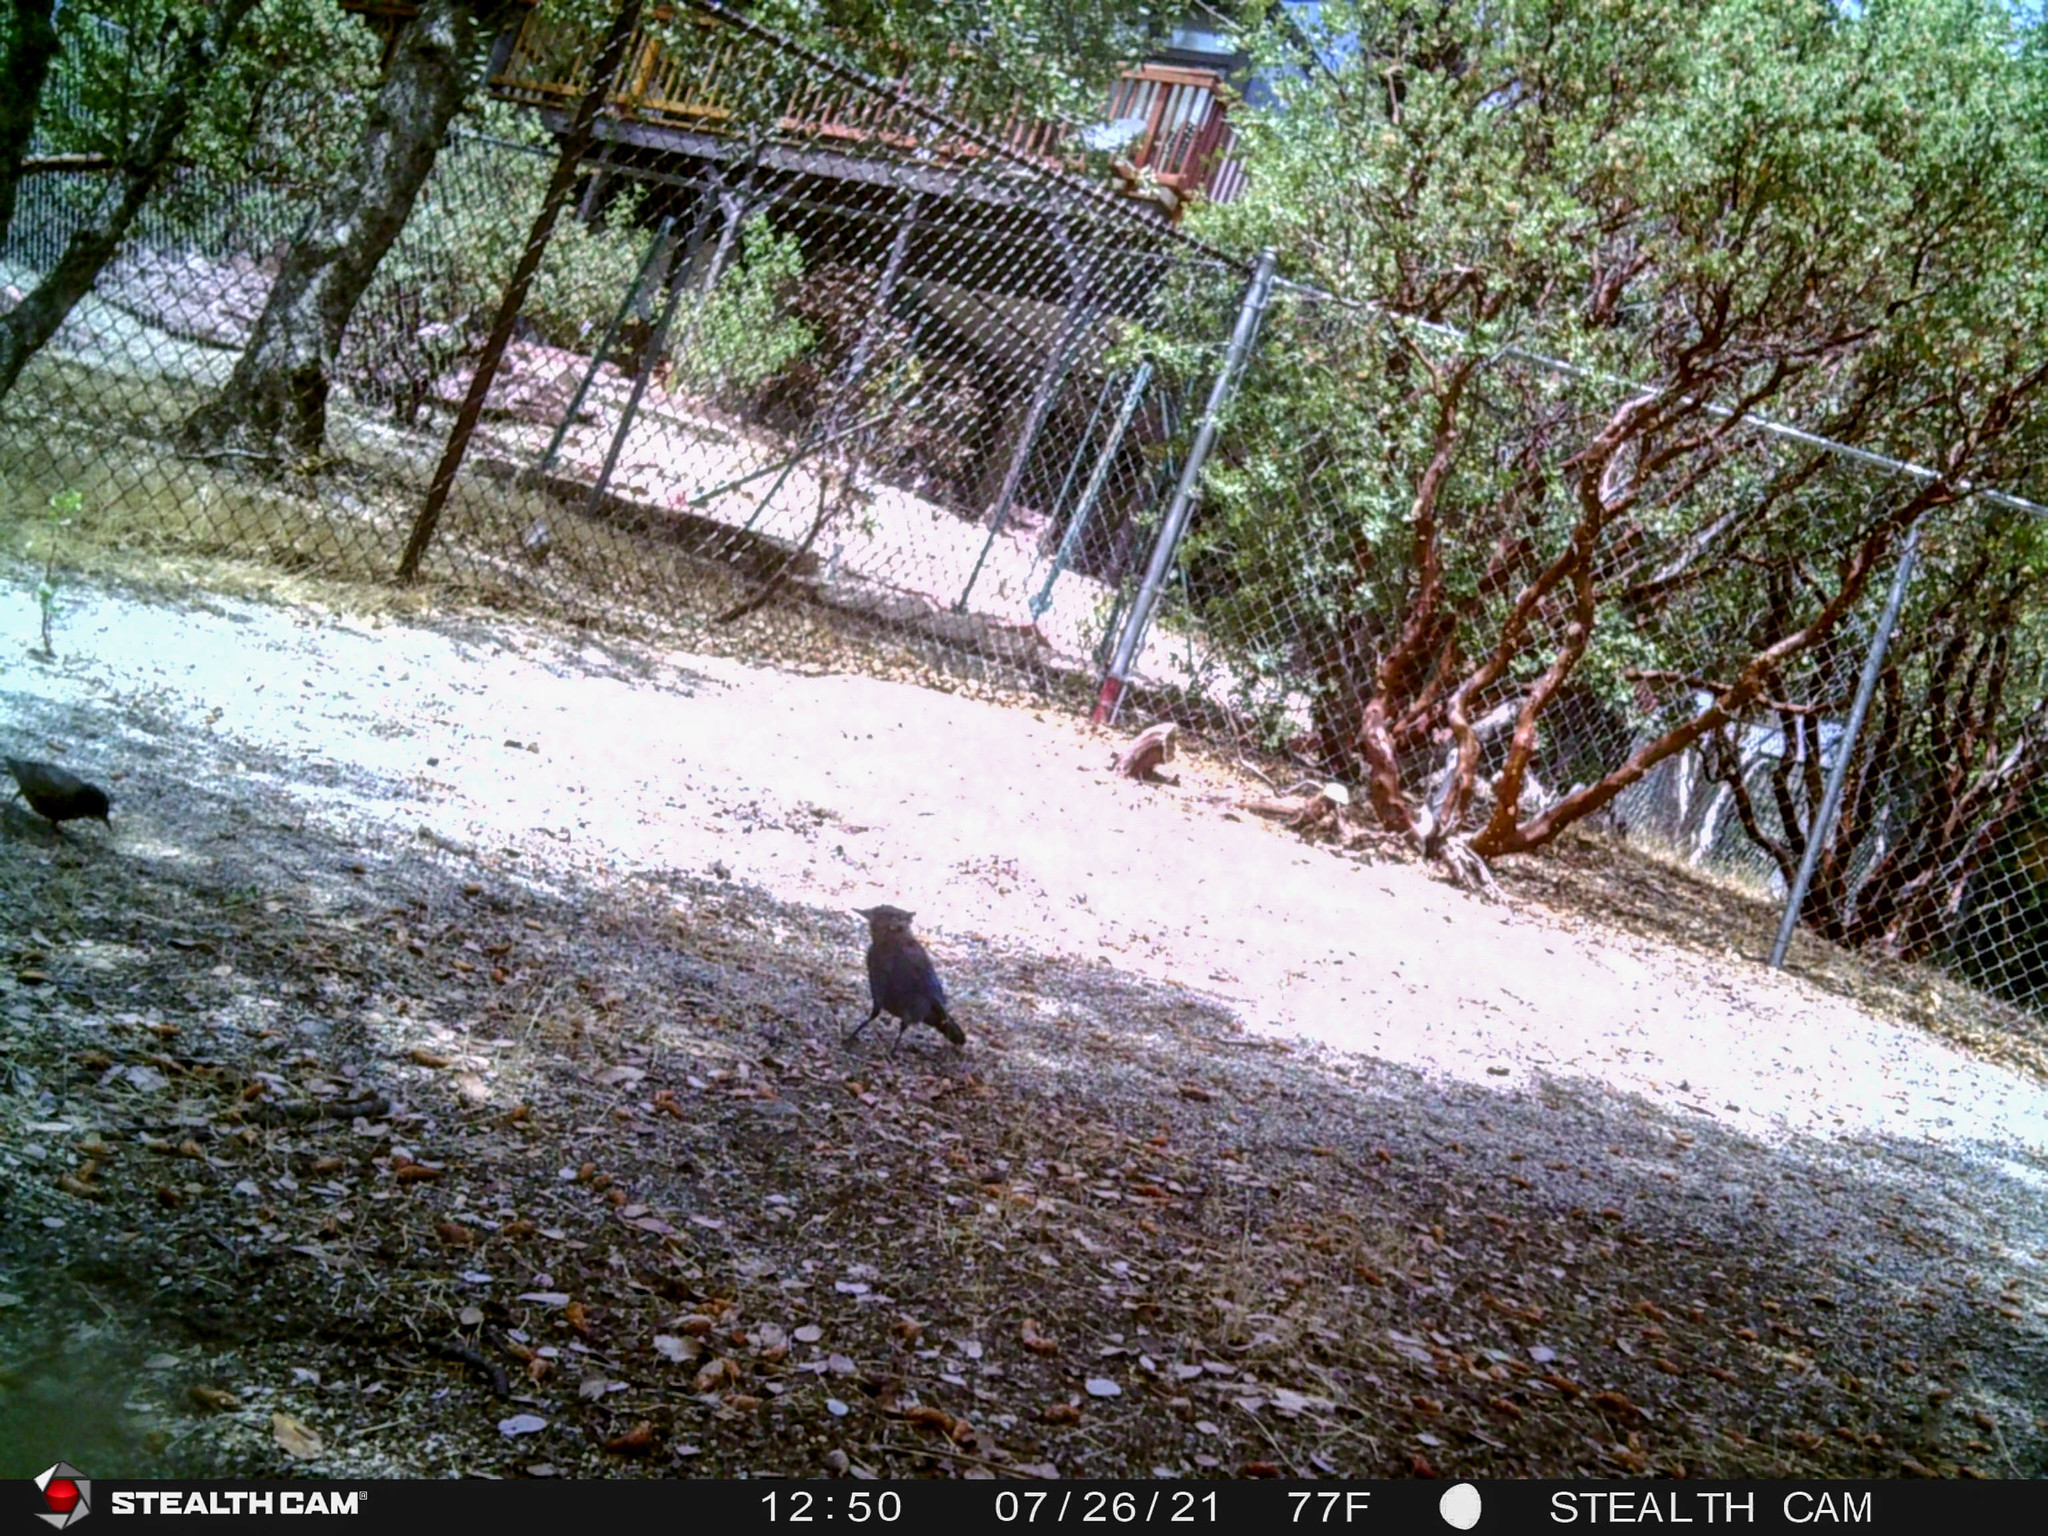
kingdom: Animalia
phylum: Chordata
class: Aves
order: Passeriformes
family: Corvidae
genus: Cyanocitta
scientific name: Cyanocitta stelleri
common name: Steller's jay
